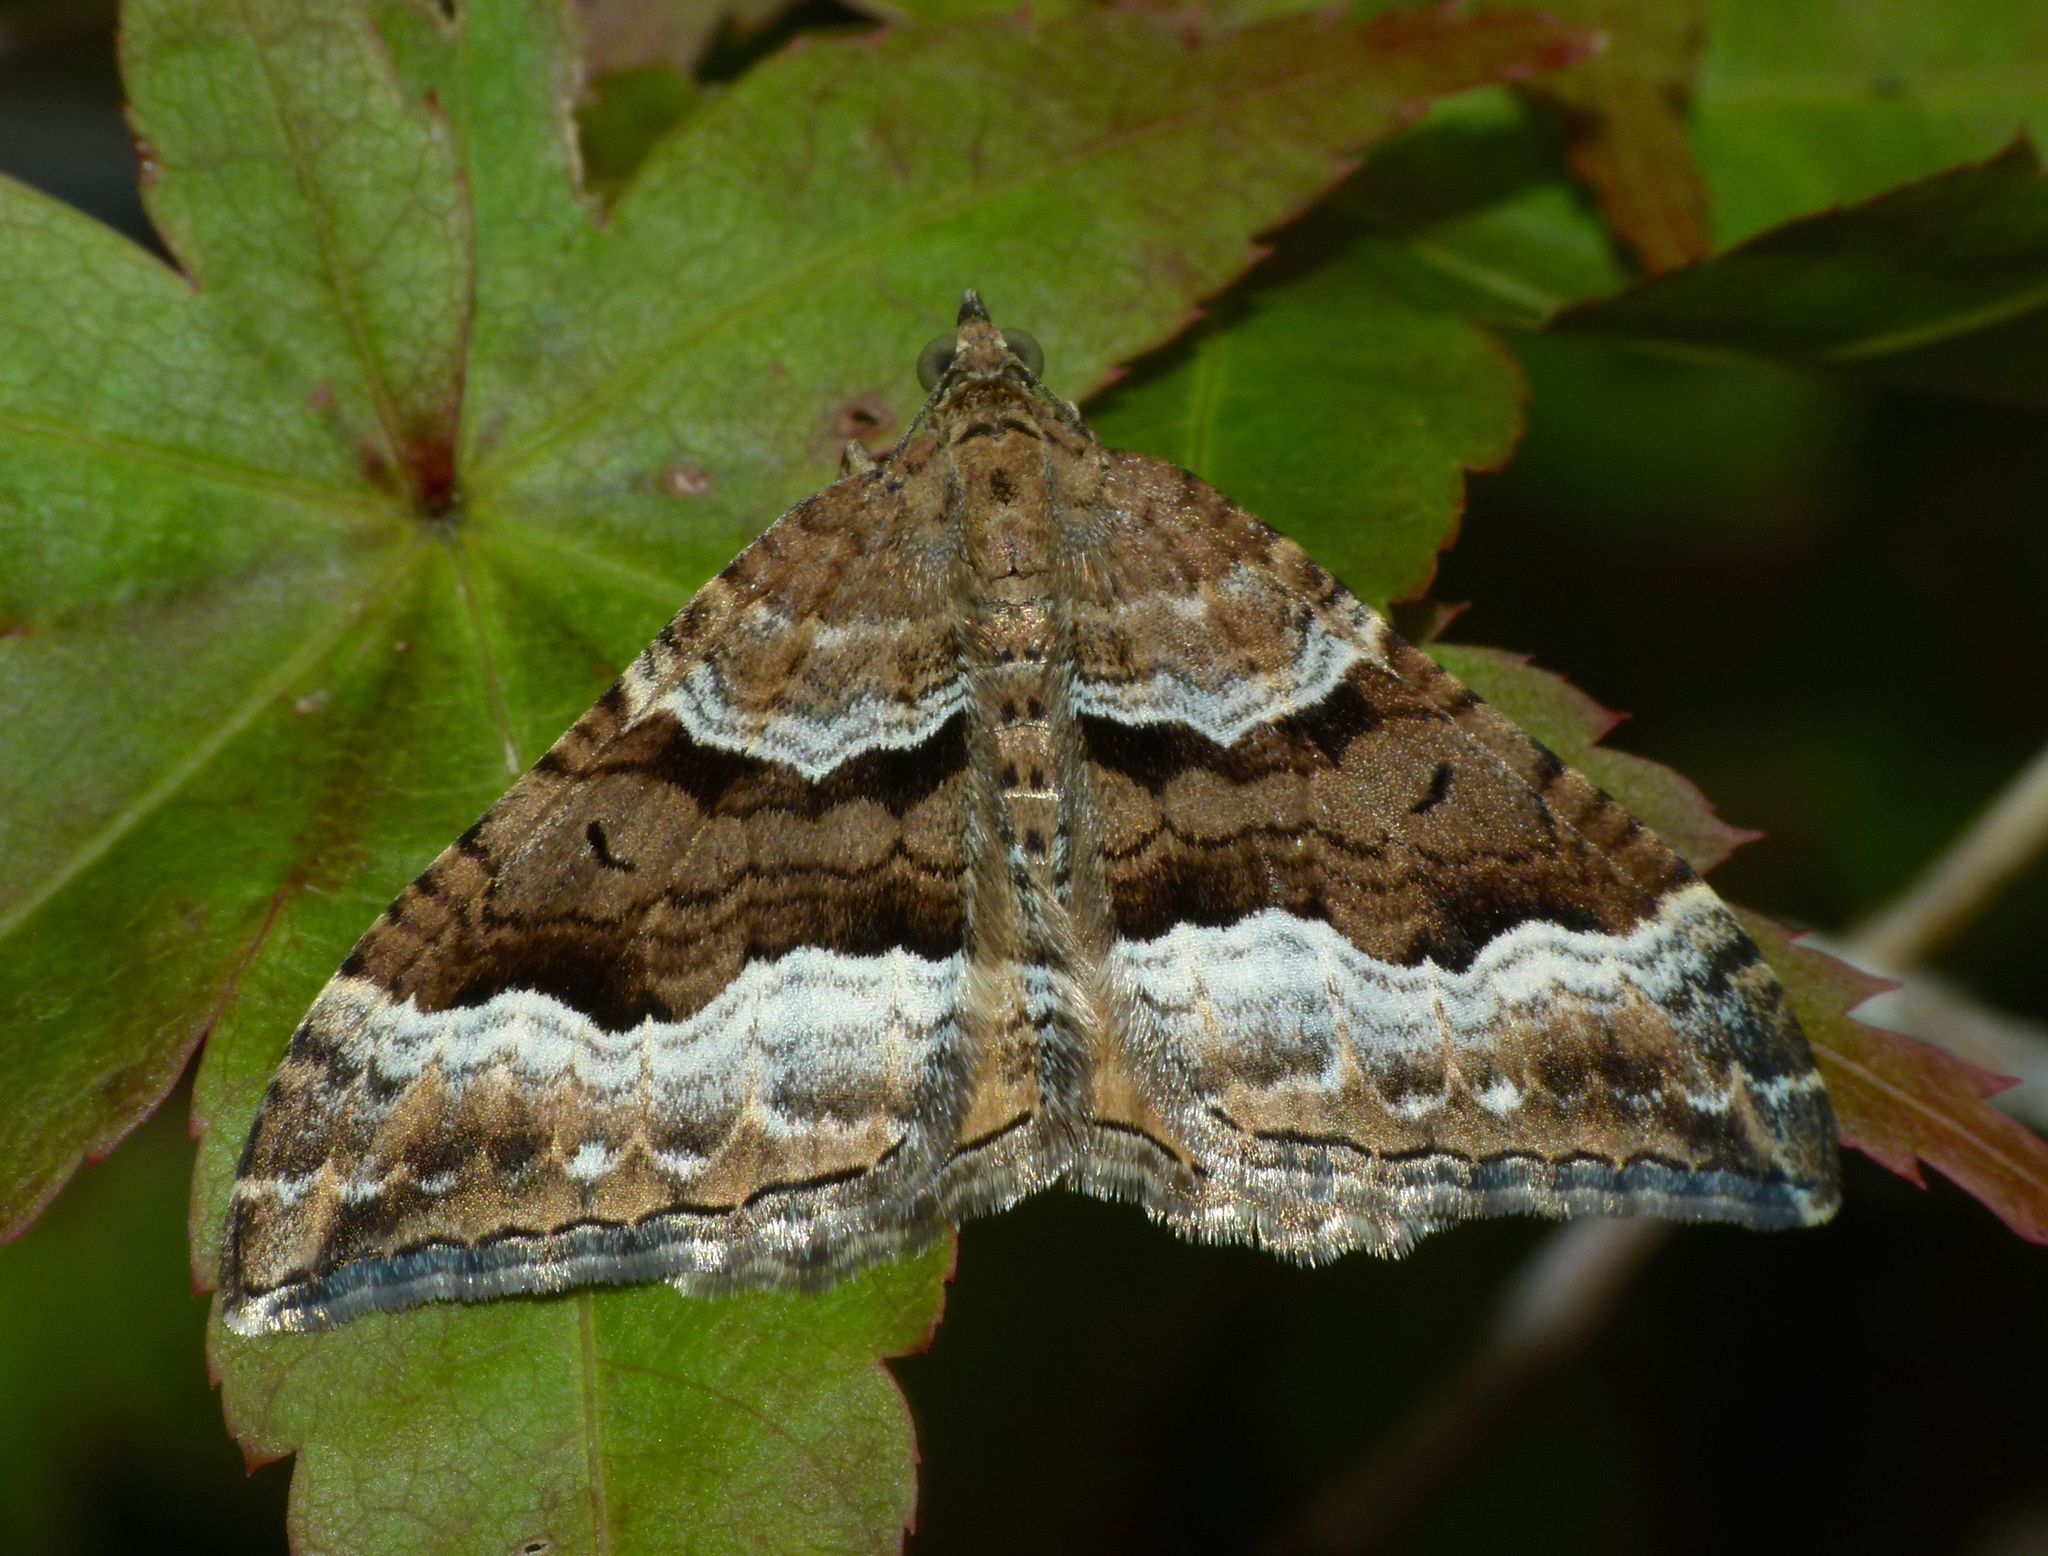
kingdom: Animalia
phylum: Arthropoda
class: Insecta
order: Lepidoptera
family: Geometridae
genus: Hydriomena
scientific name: Hydriomena deltoidata
